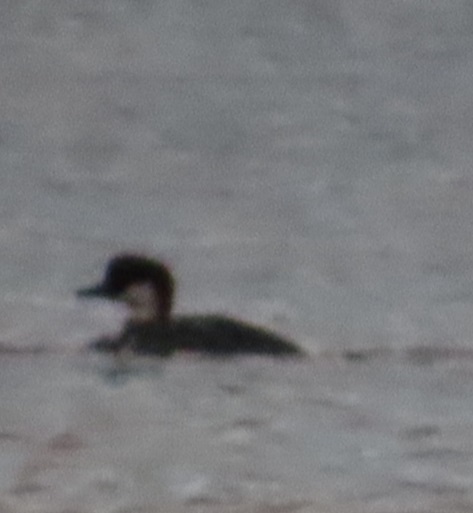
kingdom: Animalia
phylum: Chordata
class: Aves
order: Anseriformes
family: Anatidae
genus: Mergellus
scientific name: Mergellus albellus
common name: Smew
